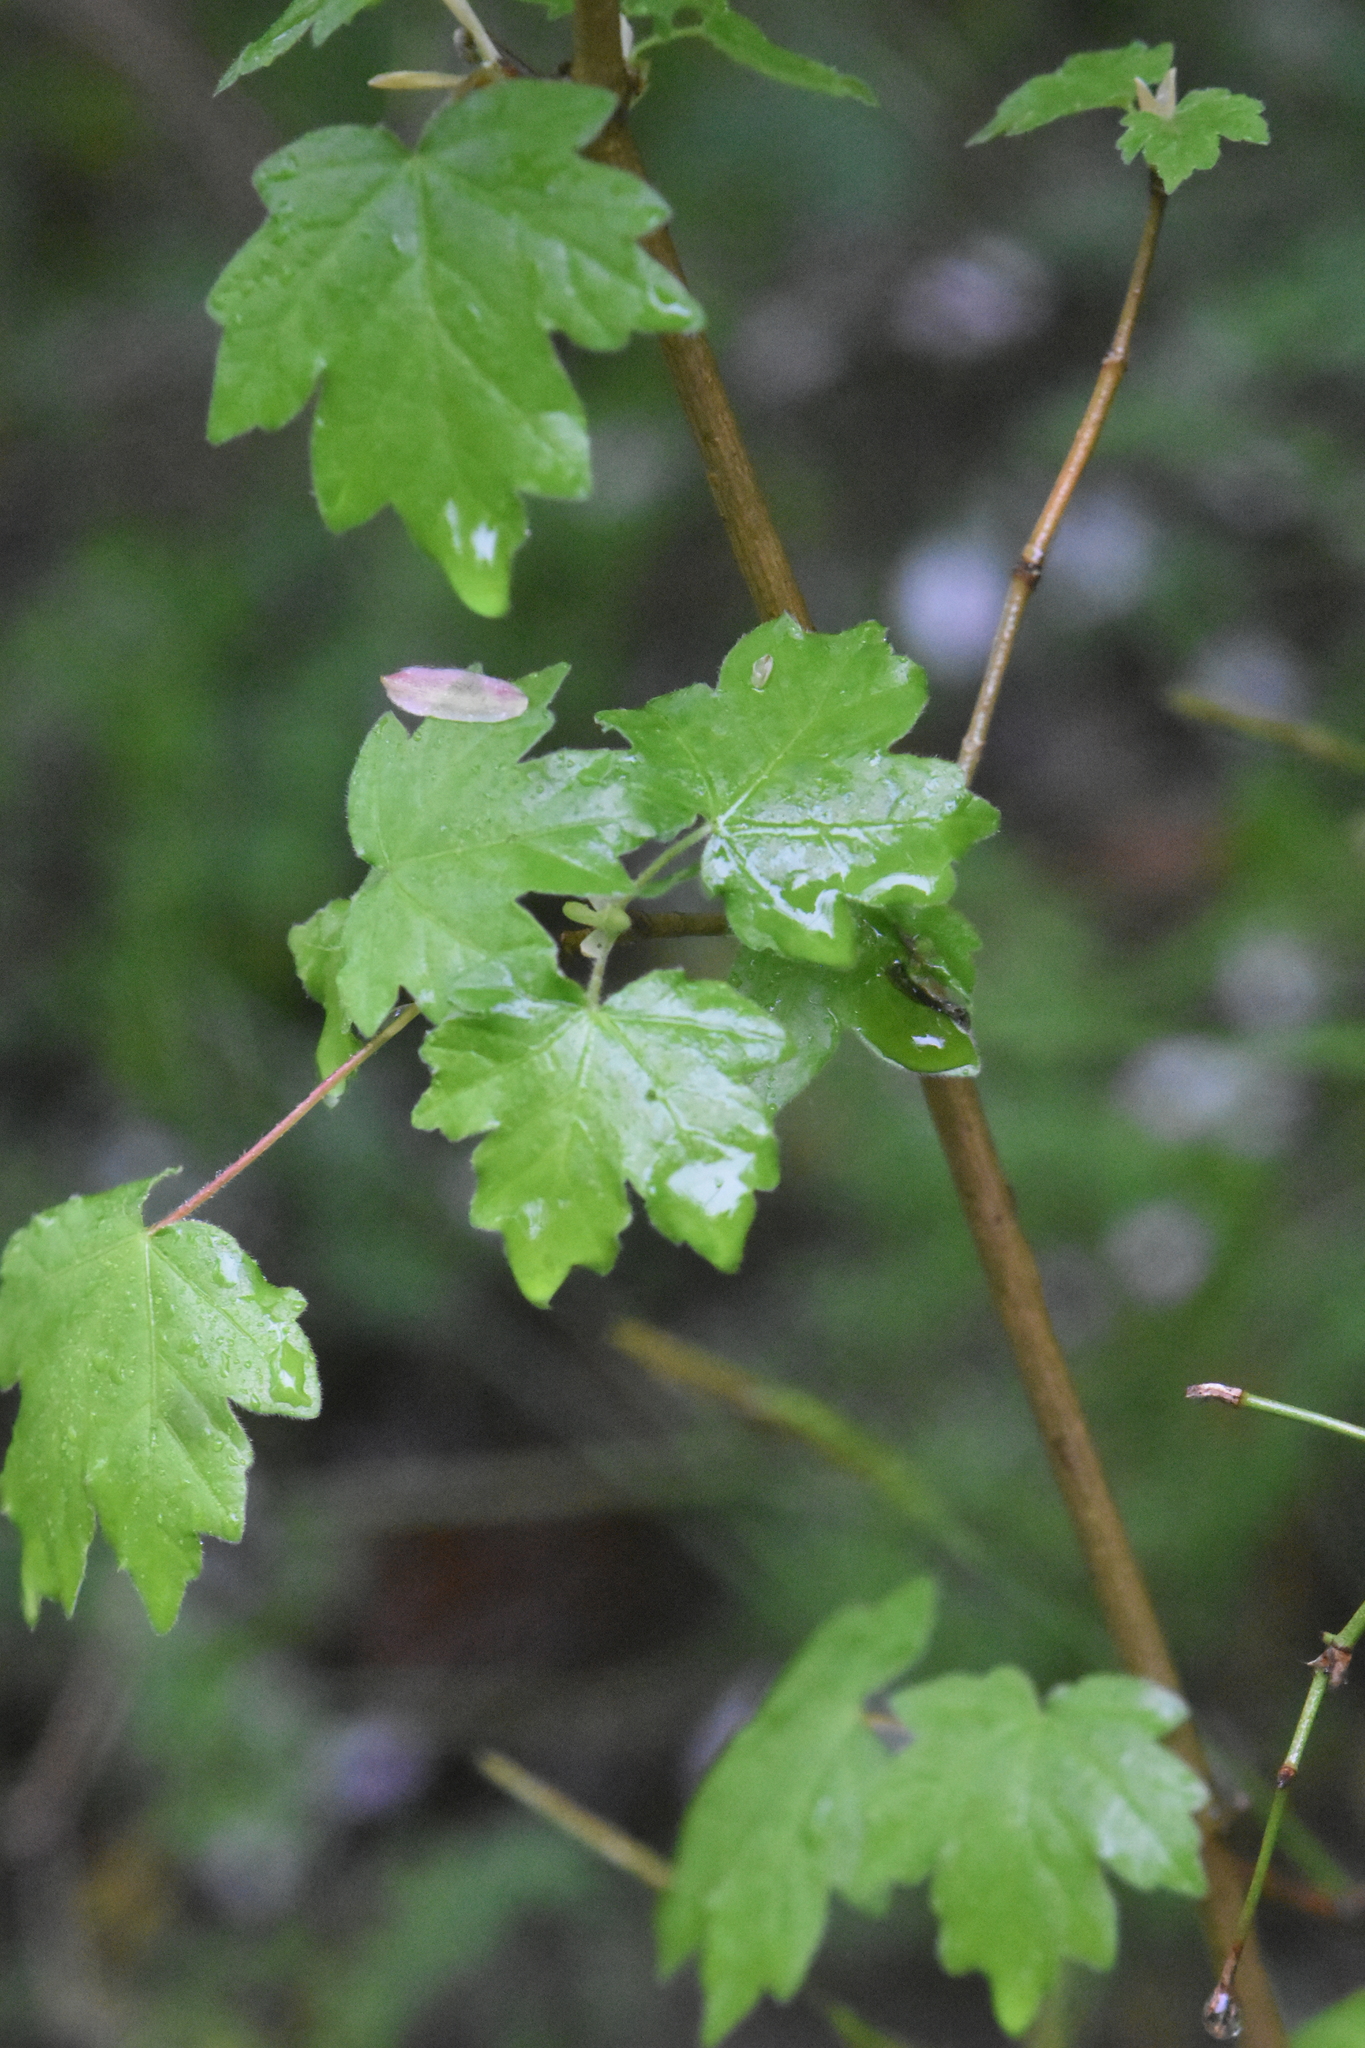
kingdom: Plantae
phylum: Tracheophyta
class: Magnoliopsida
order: Sapindales
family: Sapindaceae
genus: Acer
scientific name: Acer campestre
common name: Field maple
